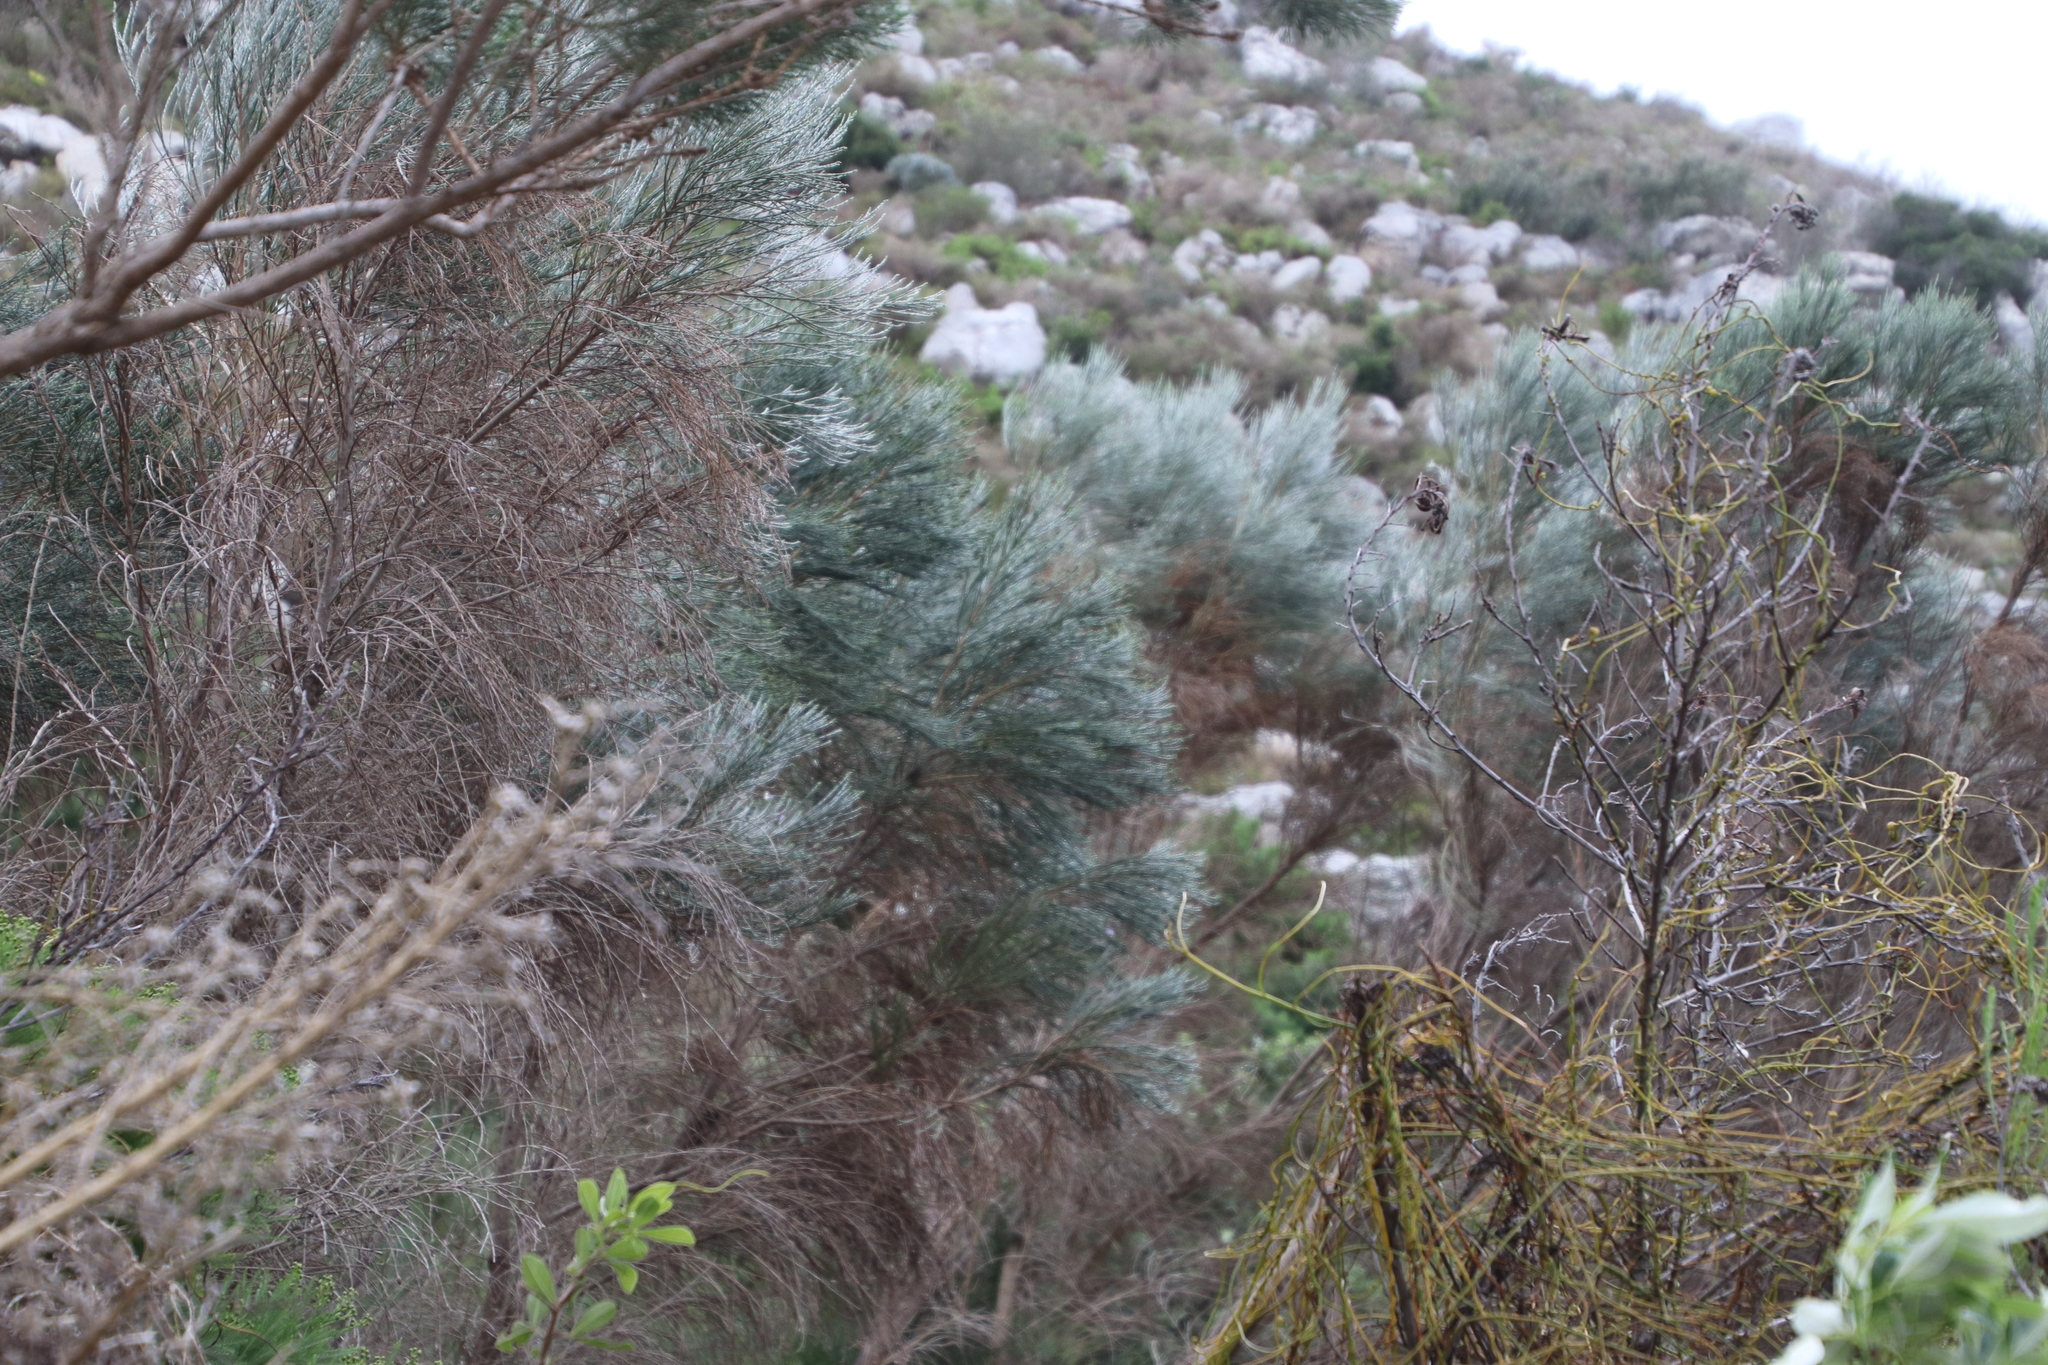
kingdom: Plantae
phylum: Tracheophyta
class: Magnoliopsida
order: Fabales
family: Fabaceae
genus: Psoralea
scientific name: Psoralea aphylla
